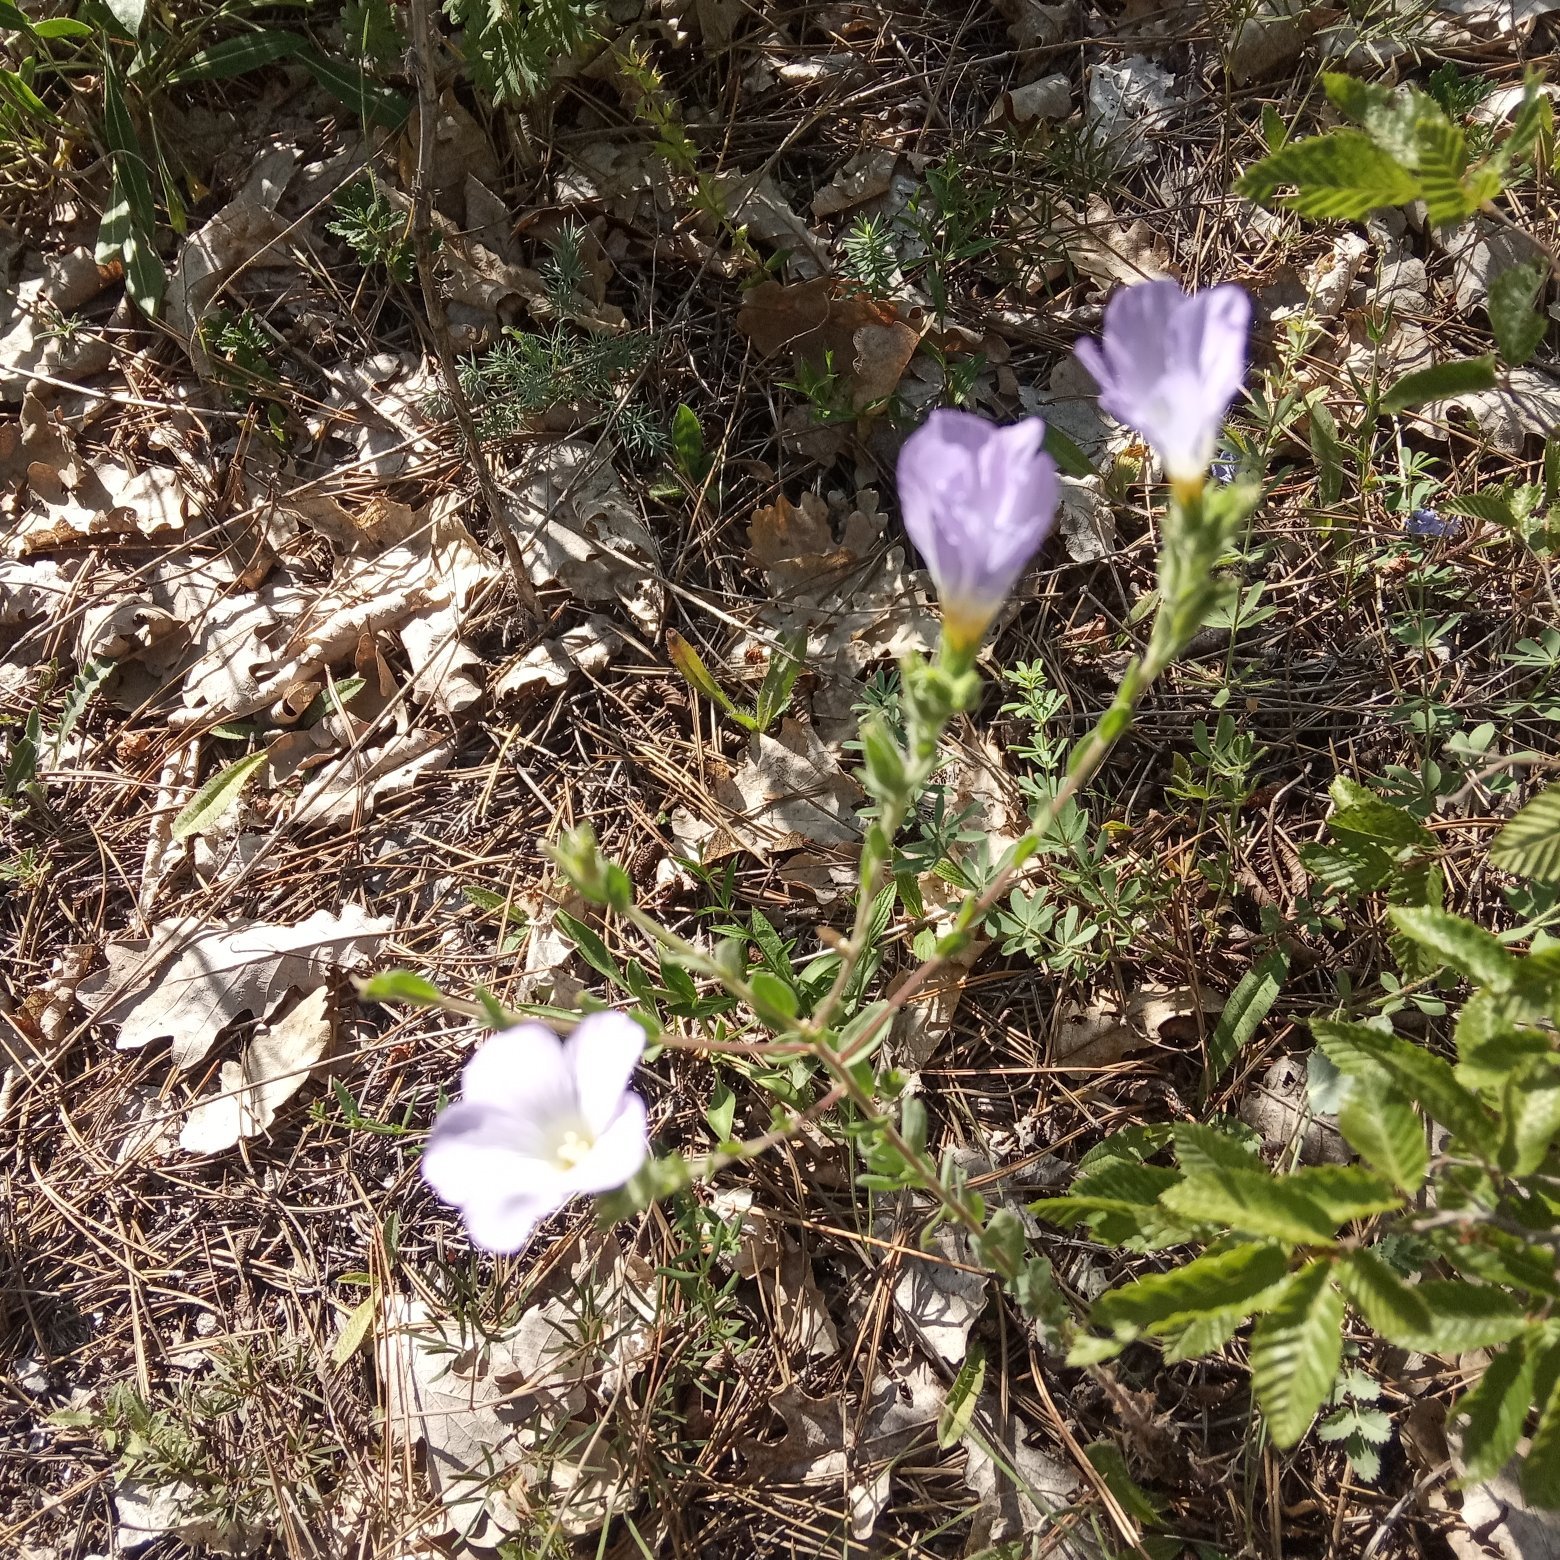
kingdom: Plantae
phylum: Tracheophyta
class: Magnoliopsida
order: Malpighiales
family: Linaceae
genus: Linum
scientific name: Linum hirsutum
